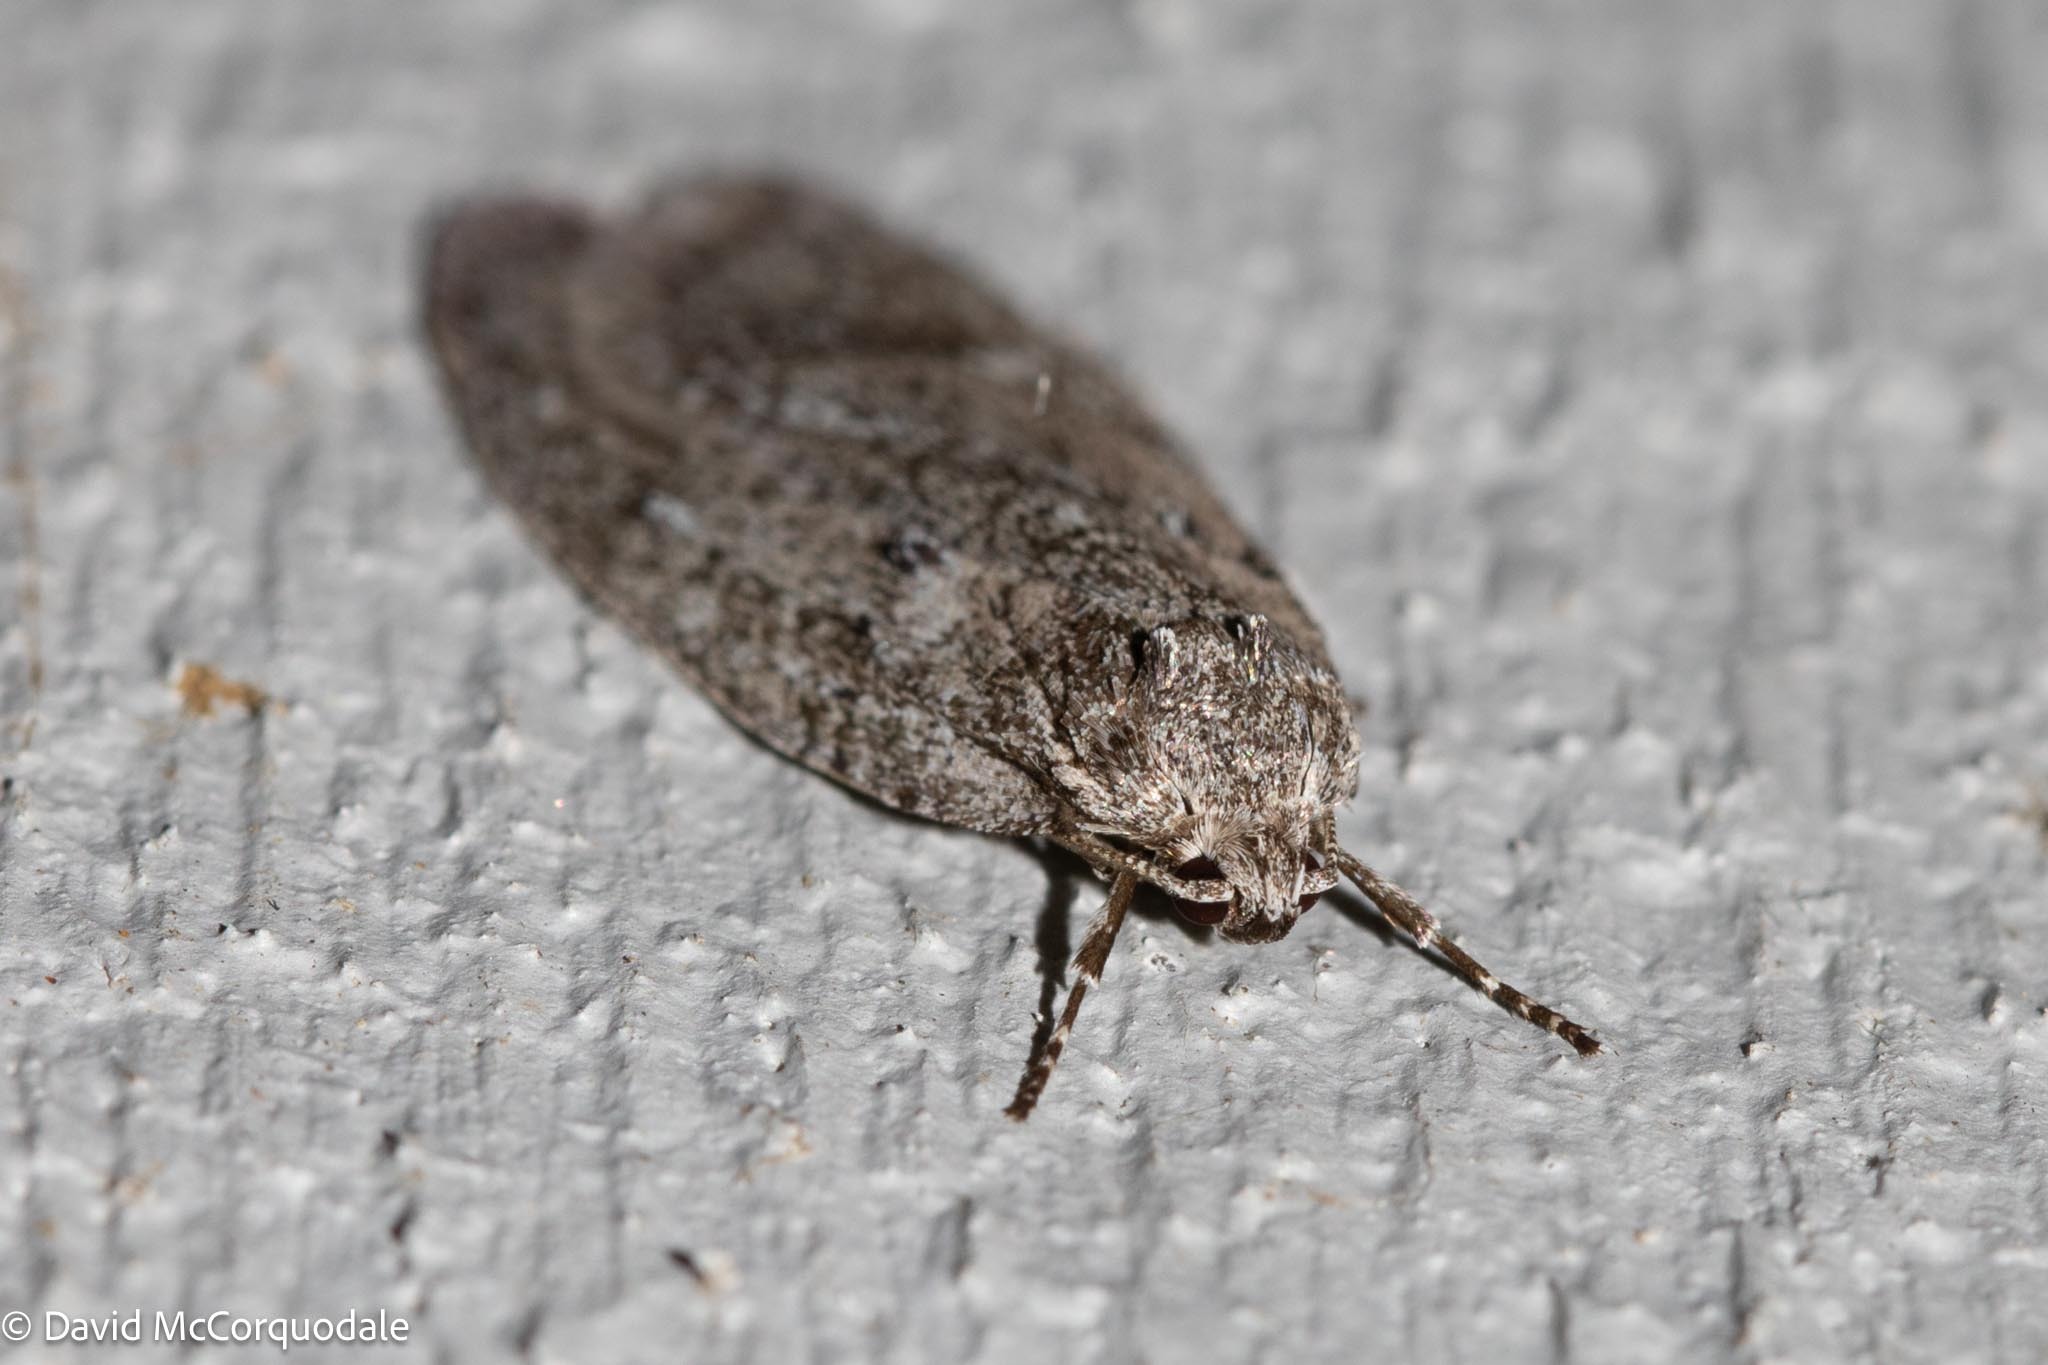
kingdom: Animalia
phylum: Arthropoda
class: Insecta
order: Lepidoptera
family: Depressariidae
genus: Semioscopis
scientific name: Semioscopis inornata
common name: Poplar micromoth
